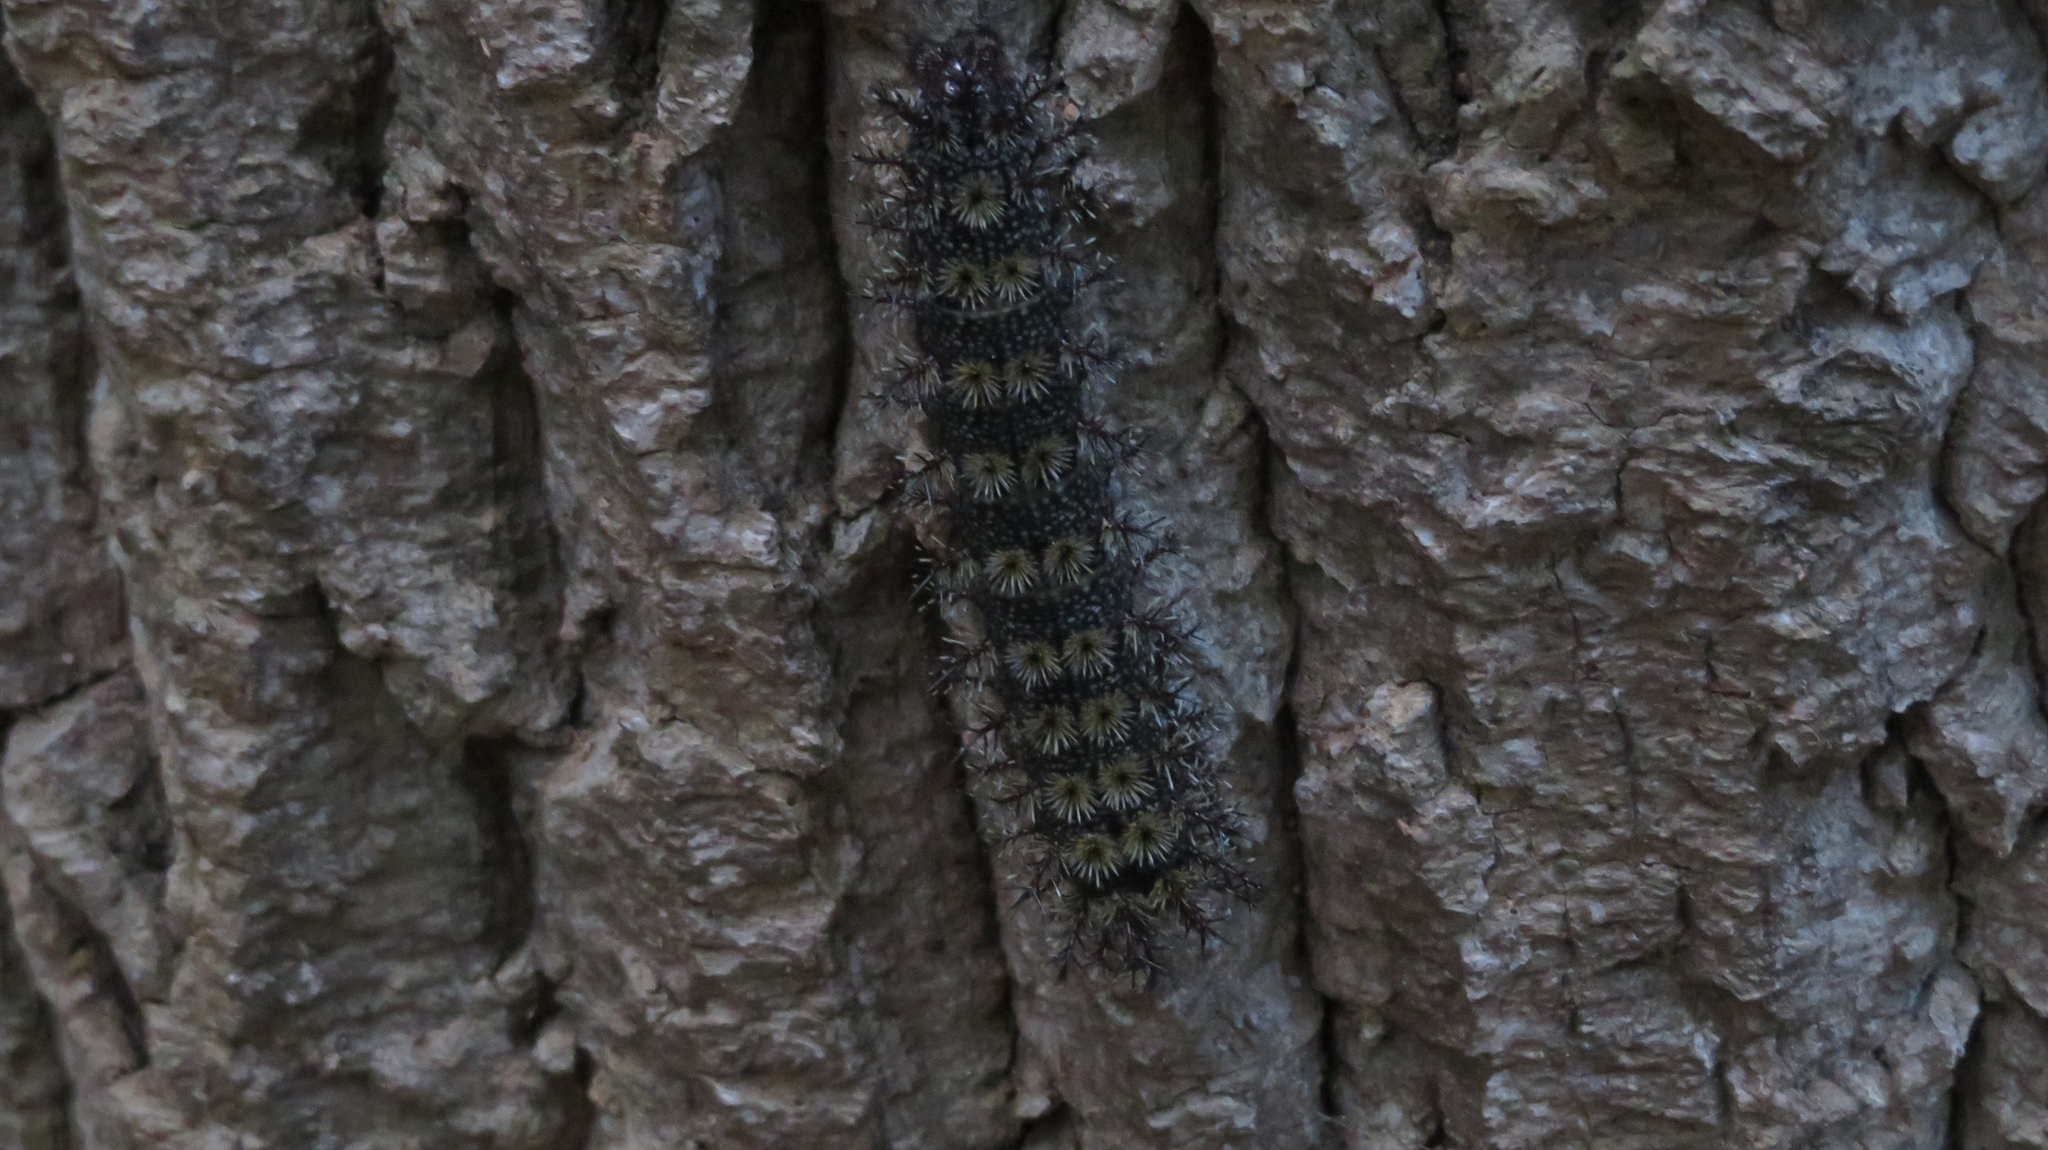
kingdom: Animalia
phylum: Arthropoda
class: Insecta
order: Lepidoptera
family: Saturniidae
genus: Hemileuca
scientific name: Hemileuca maia
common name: Eastern buckmoth
